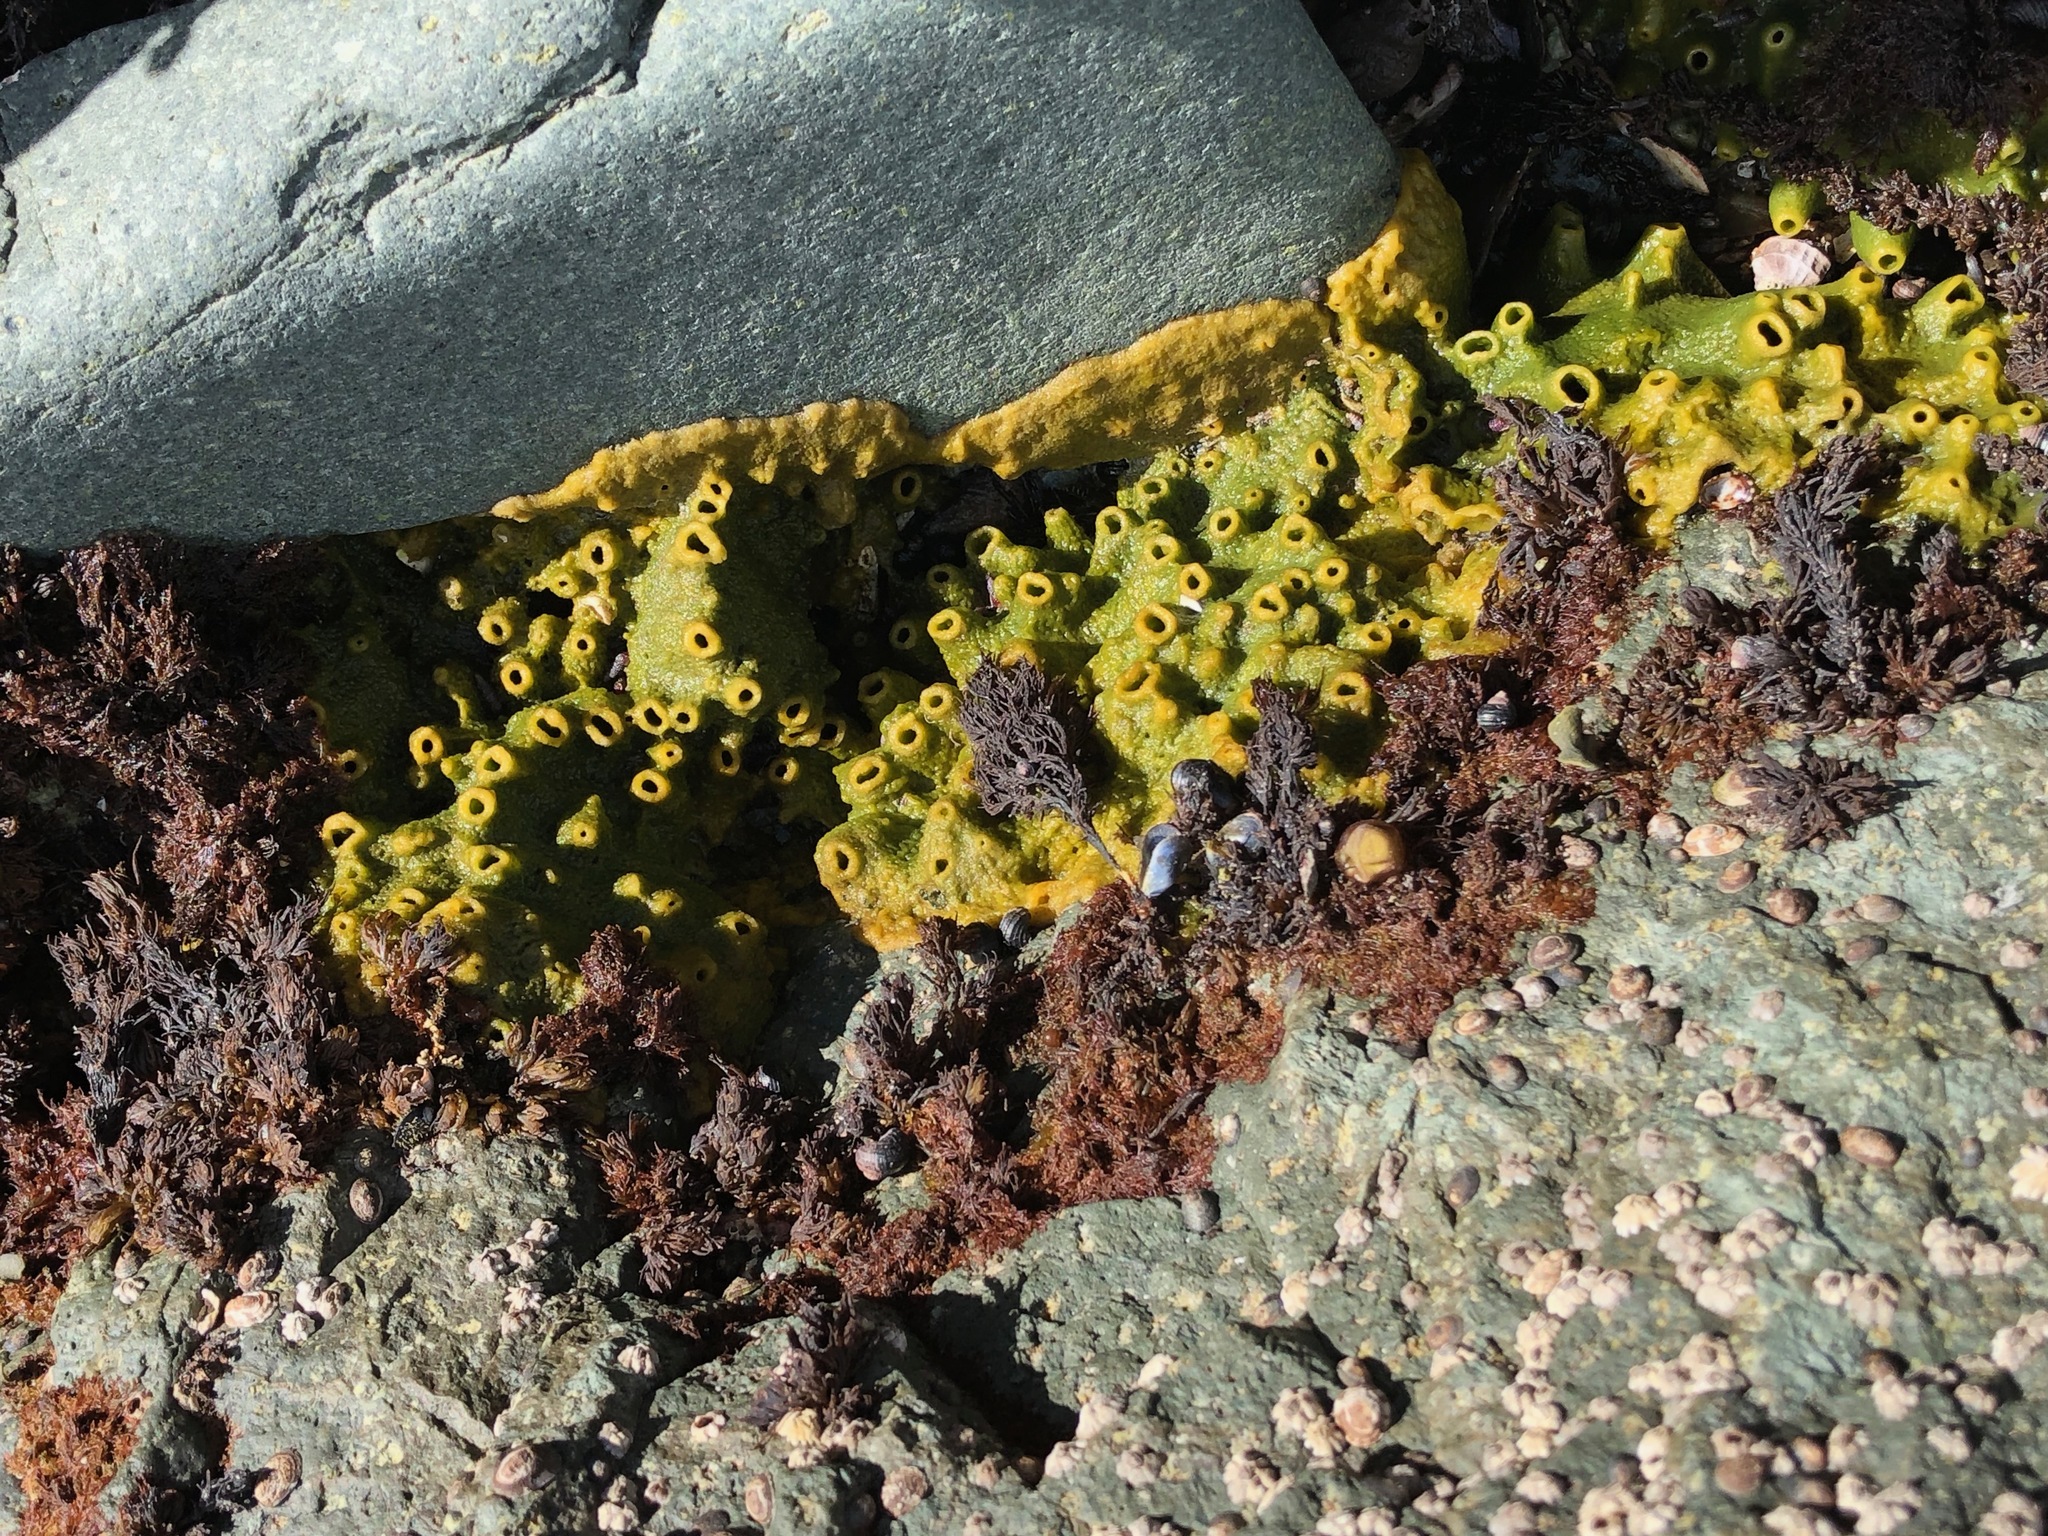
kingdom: Animalia
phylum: Porifera
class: Demospongiae
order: Suberitida
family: Halichondriidae
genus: Halichondria
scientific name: Halichondria panicea
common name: Breadcrumb sponge
